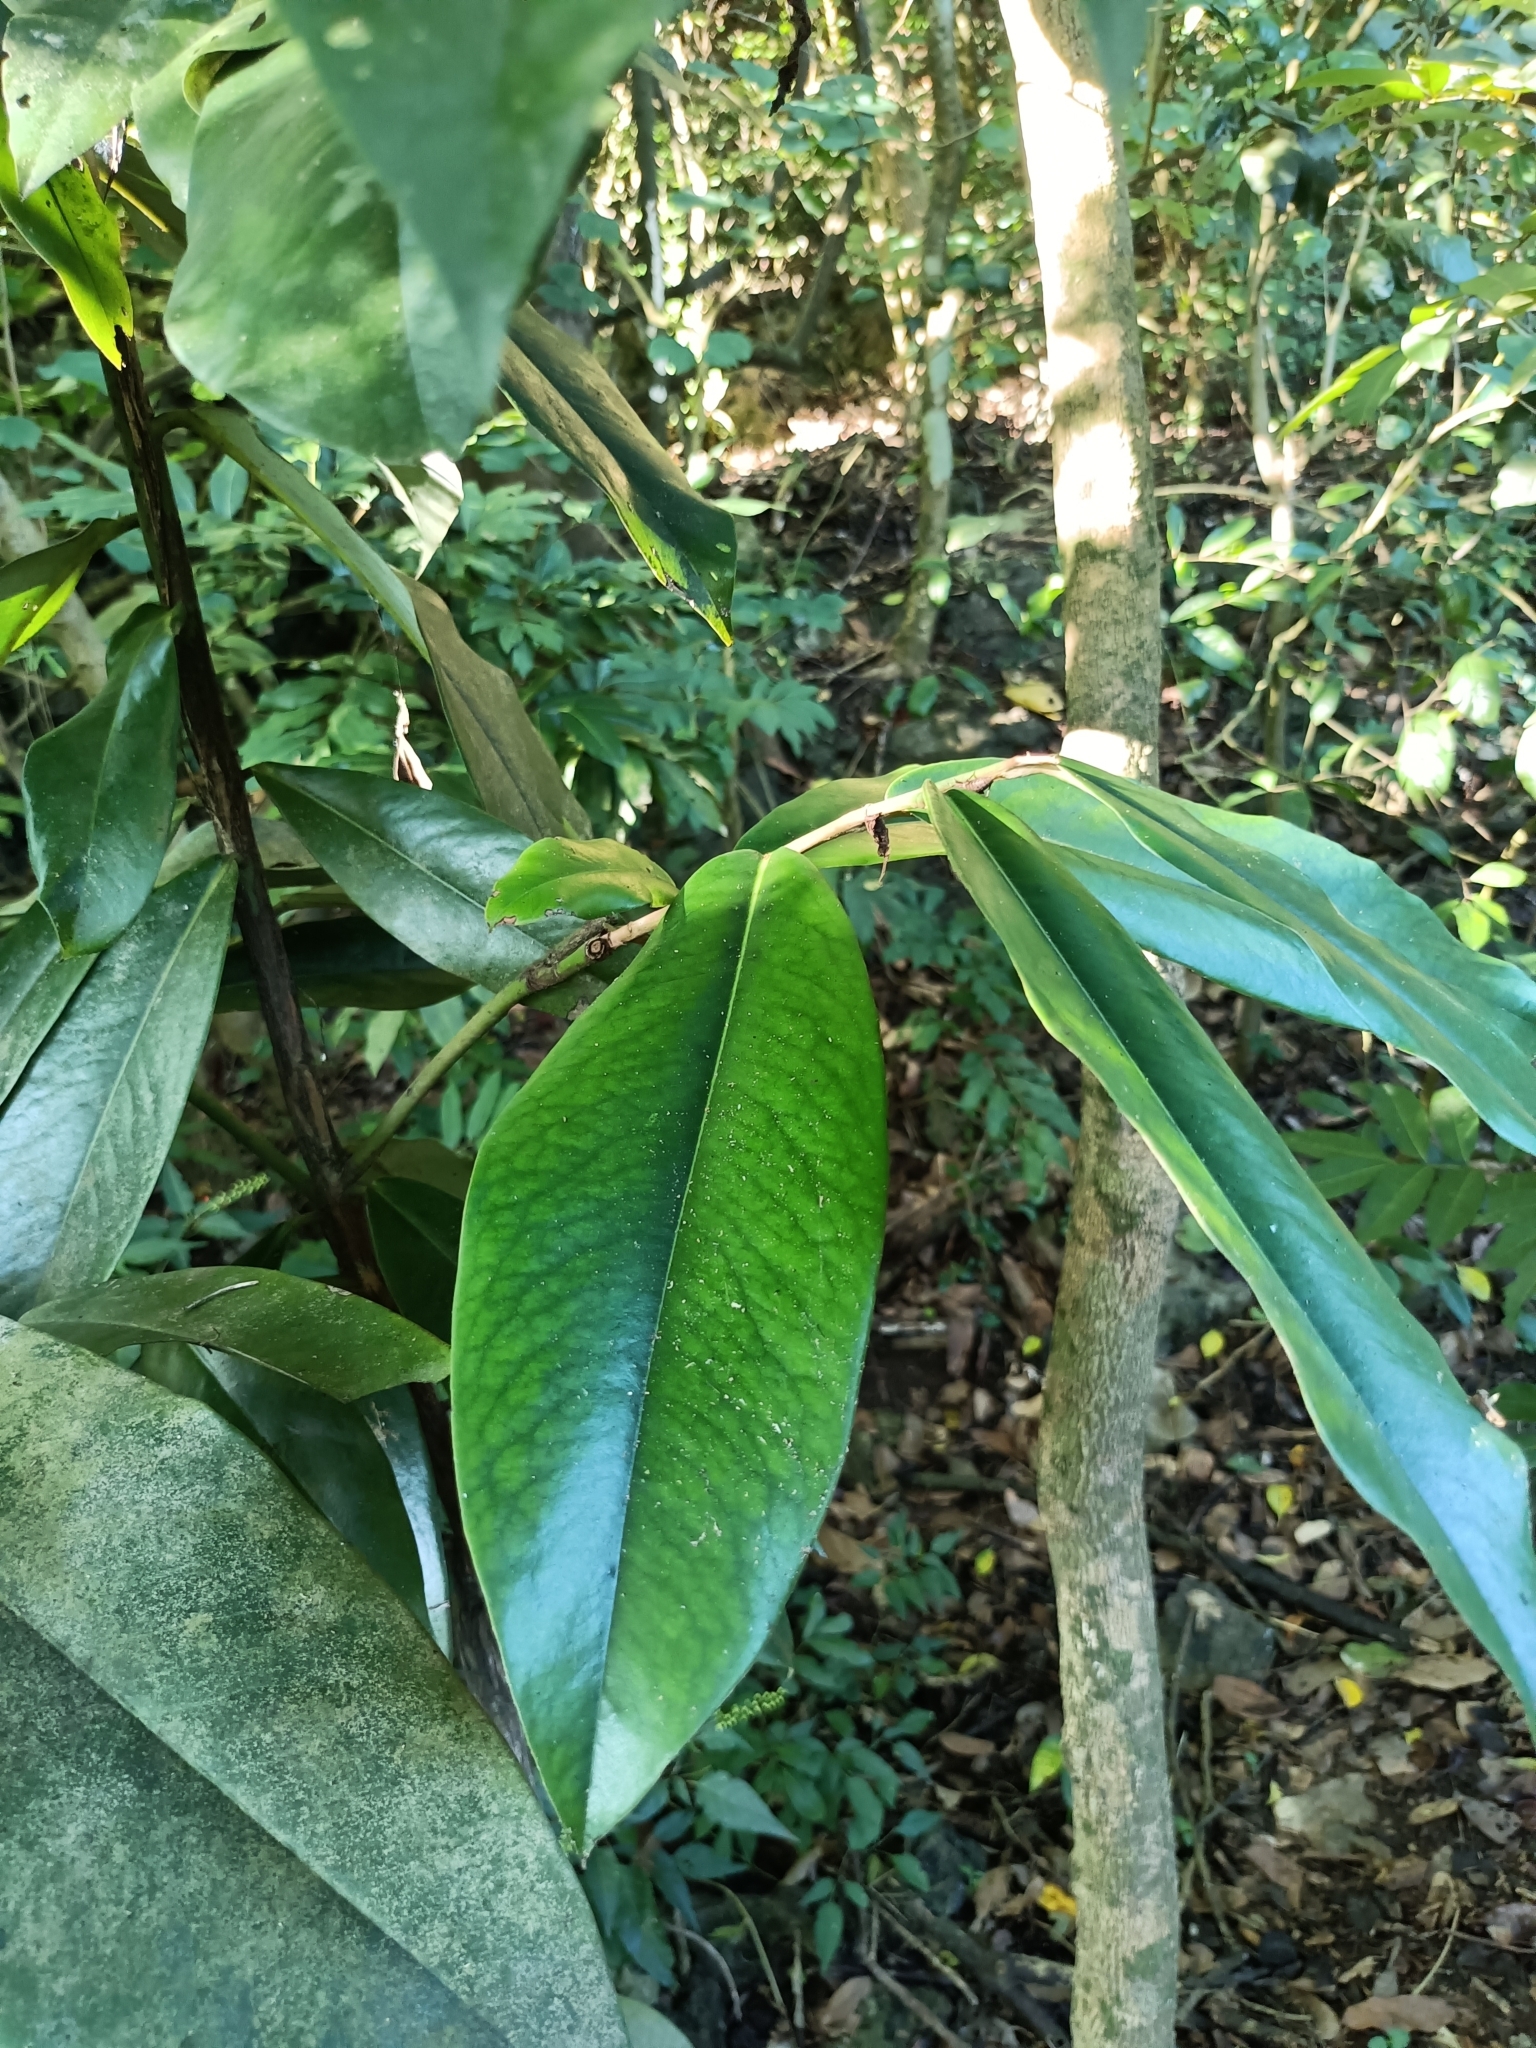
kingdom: Plantae
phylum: Tracheophyta
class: Magnoliopsida
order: Ericales
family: Ebenaceae
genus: Diospyros
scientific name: Diospyros blancoi
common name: Mabola-tree
